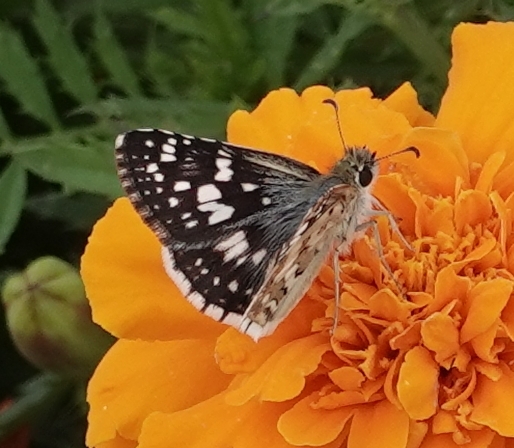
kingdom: Animalia
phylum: Arthropoda
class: Insecta
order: Lepidoptera
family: Hesperiidae
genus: Burnsius
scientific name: Burnsius communis
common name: Common checkered-skipper
